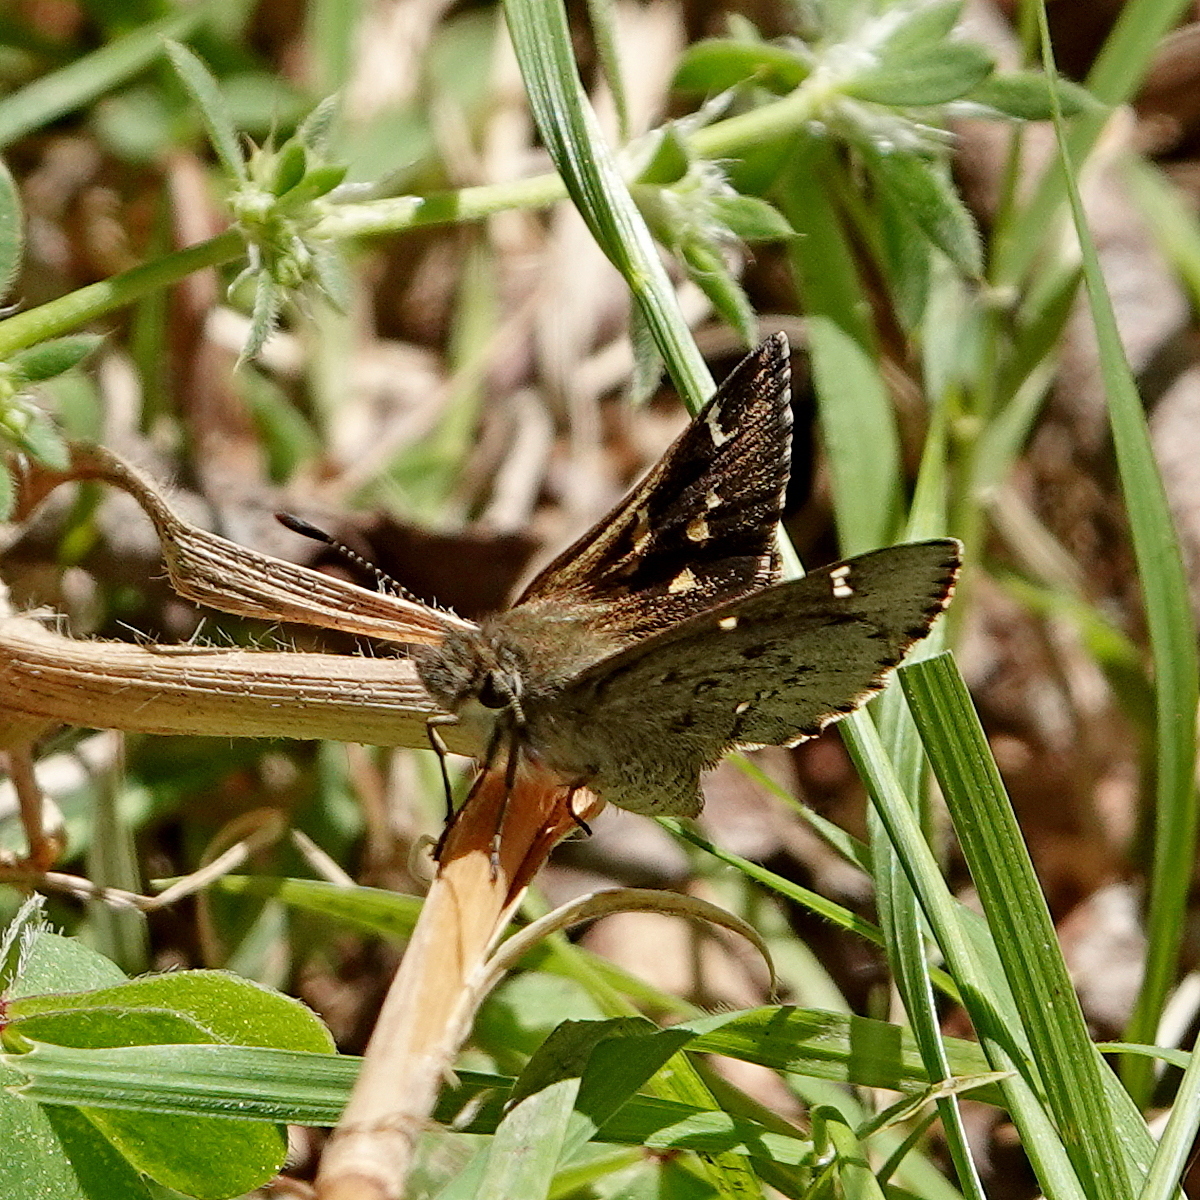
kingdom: Animalia
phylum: Arthropoda
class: Insecta
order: Lepidoptera
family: Hesperiidae
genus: Pasma
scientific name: Pasma tasmanicus
